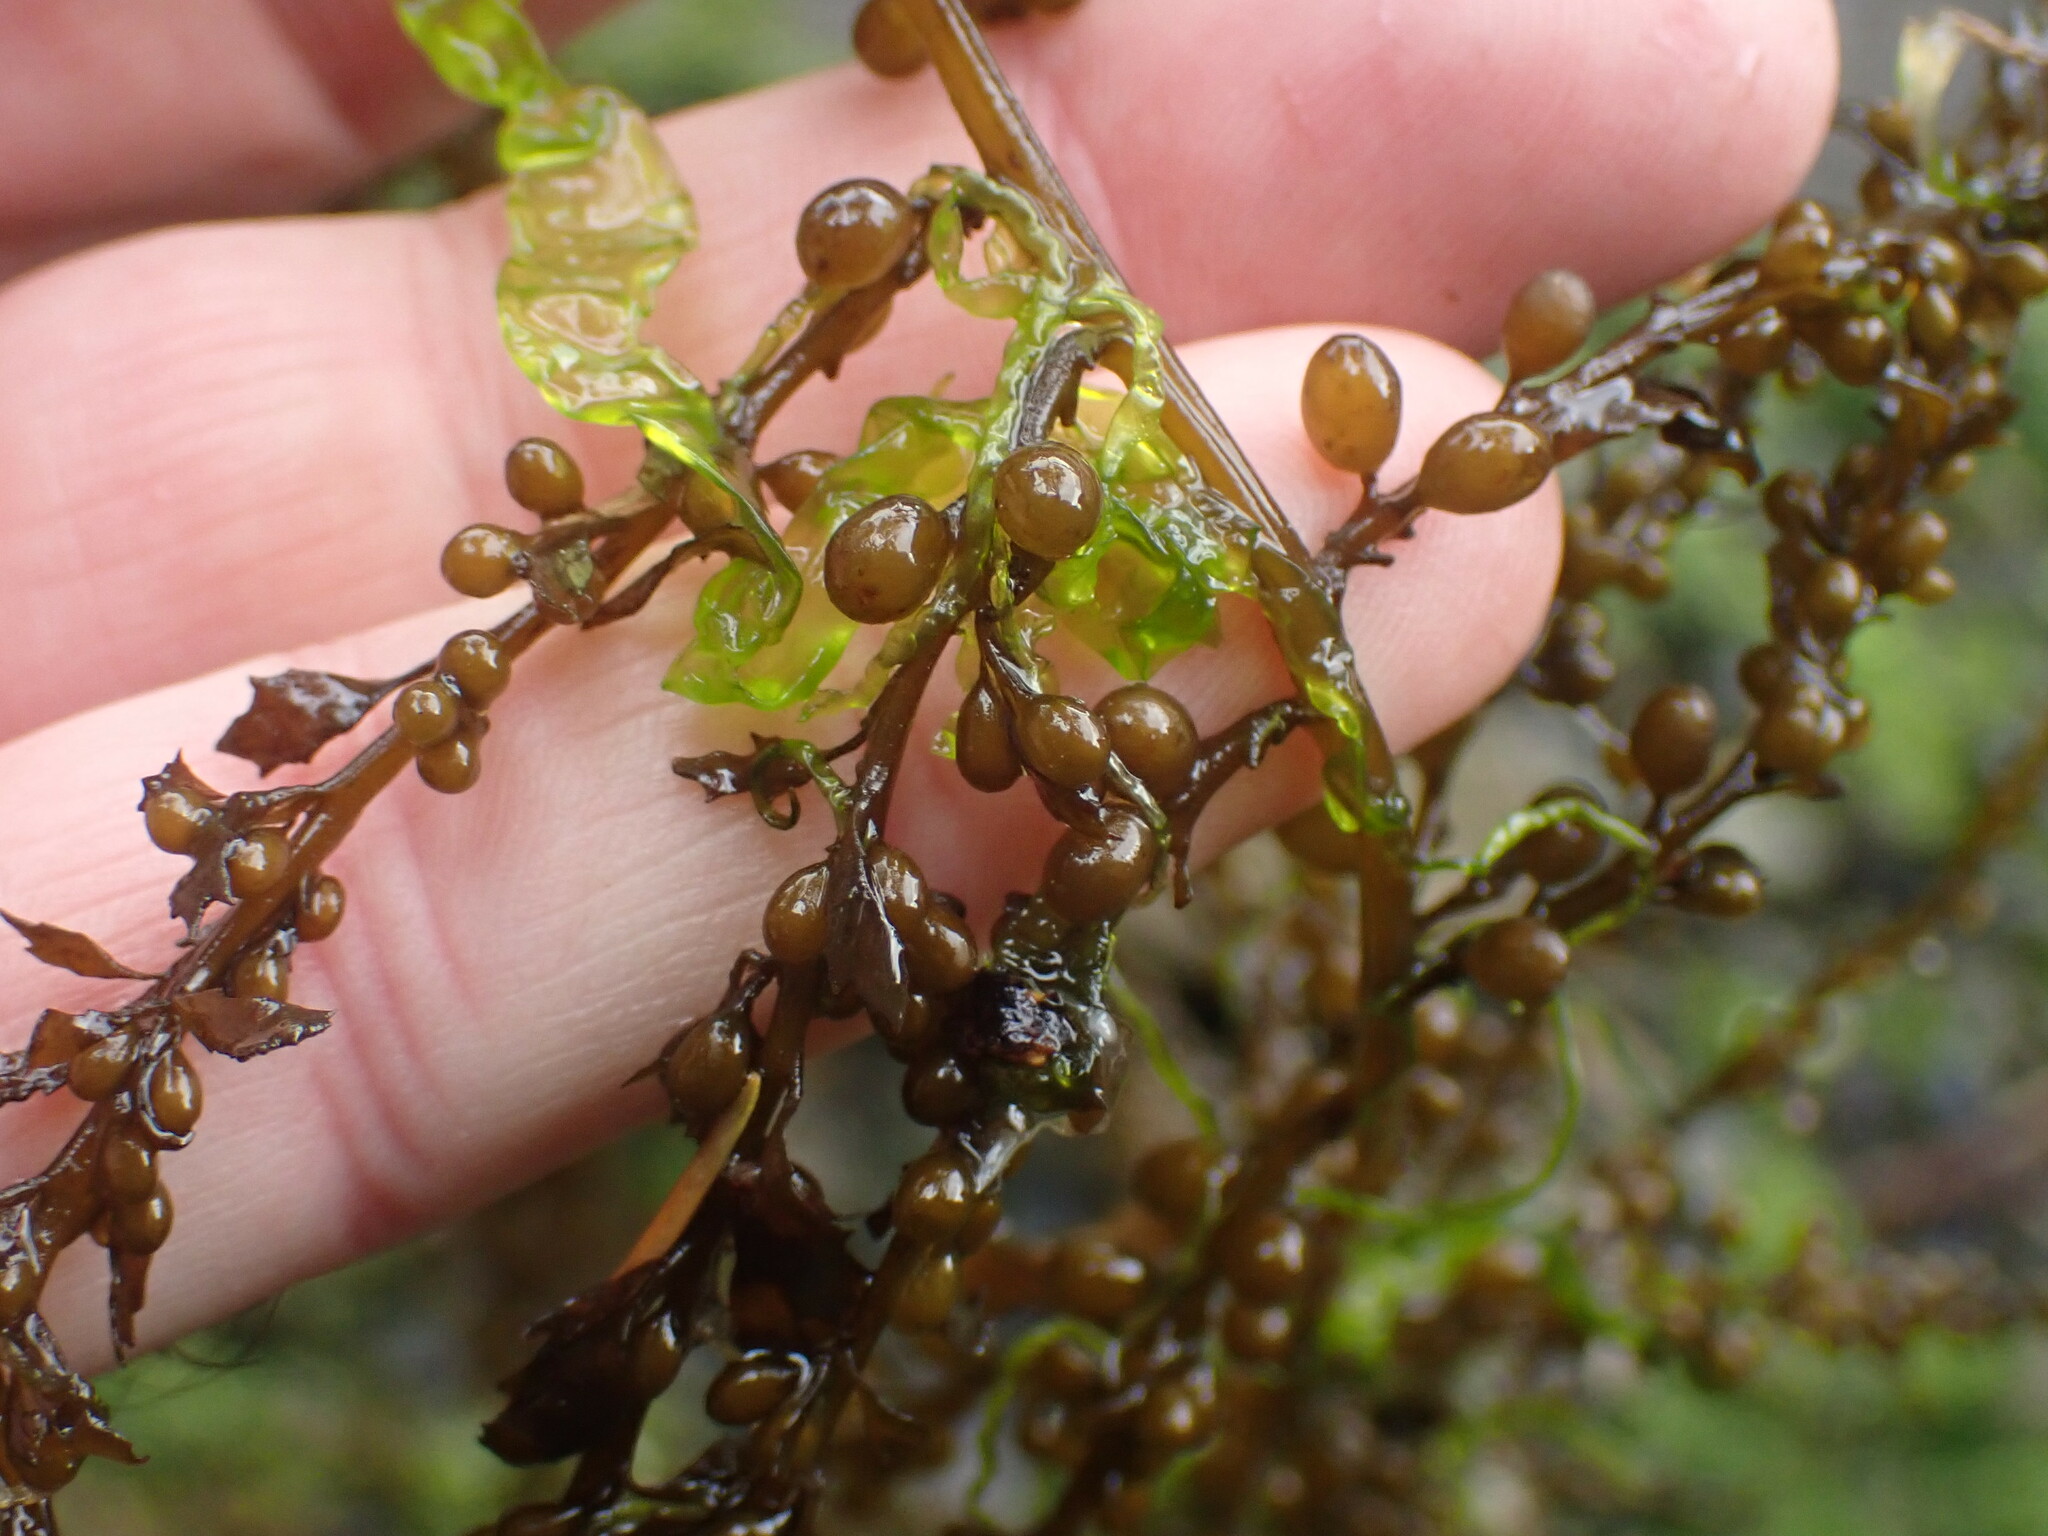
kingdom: Chromista
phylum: Ochrophyta
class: Phaeophyceae
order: Fucales
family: Sargassaceae
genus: Sargassum
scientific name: Sargassum muticum
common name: Japweed
